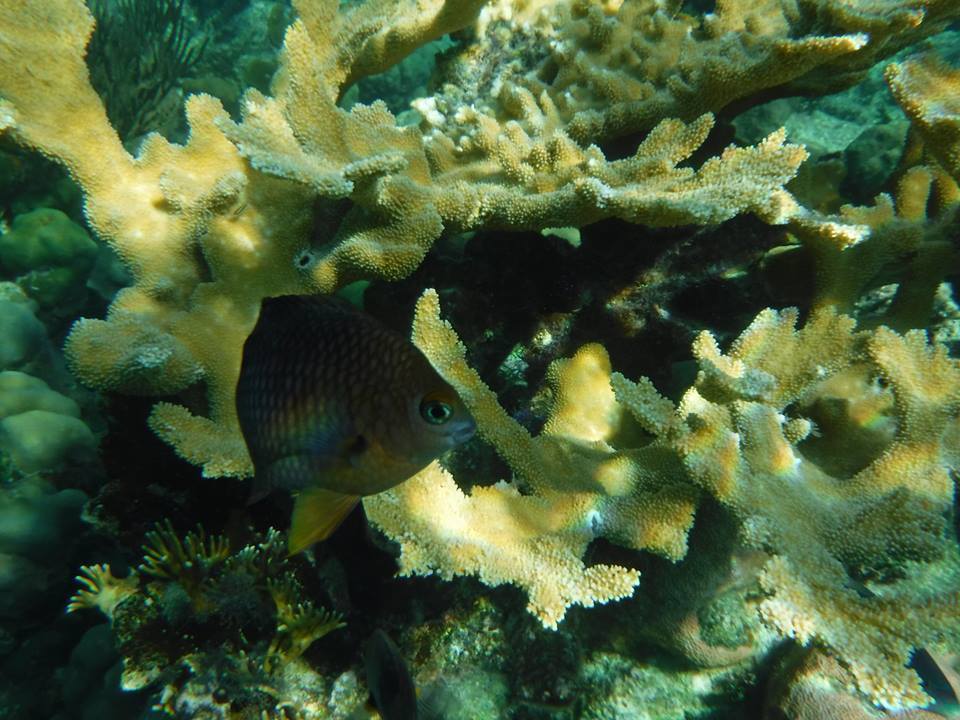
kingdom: Animalia
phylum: Chordata
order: Perciformes
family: Pomacentridae
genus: Stegastes
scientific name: Stegastes planifrons
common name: Threespot damselfish
